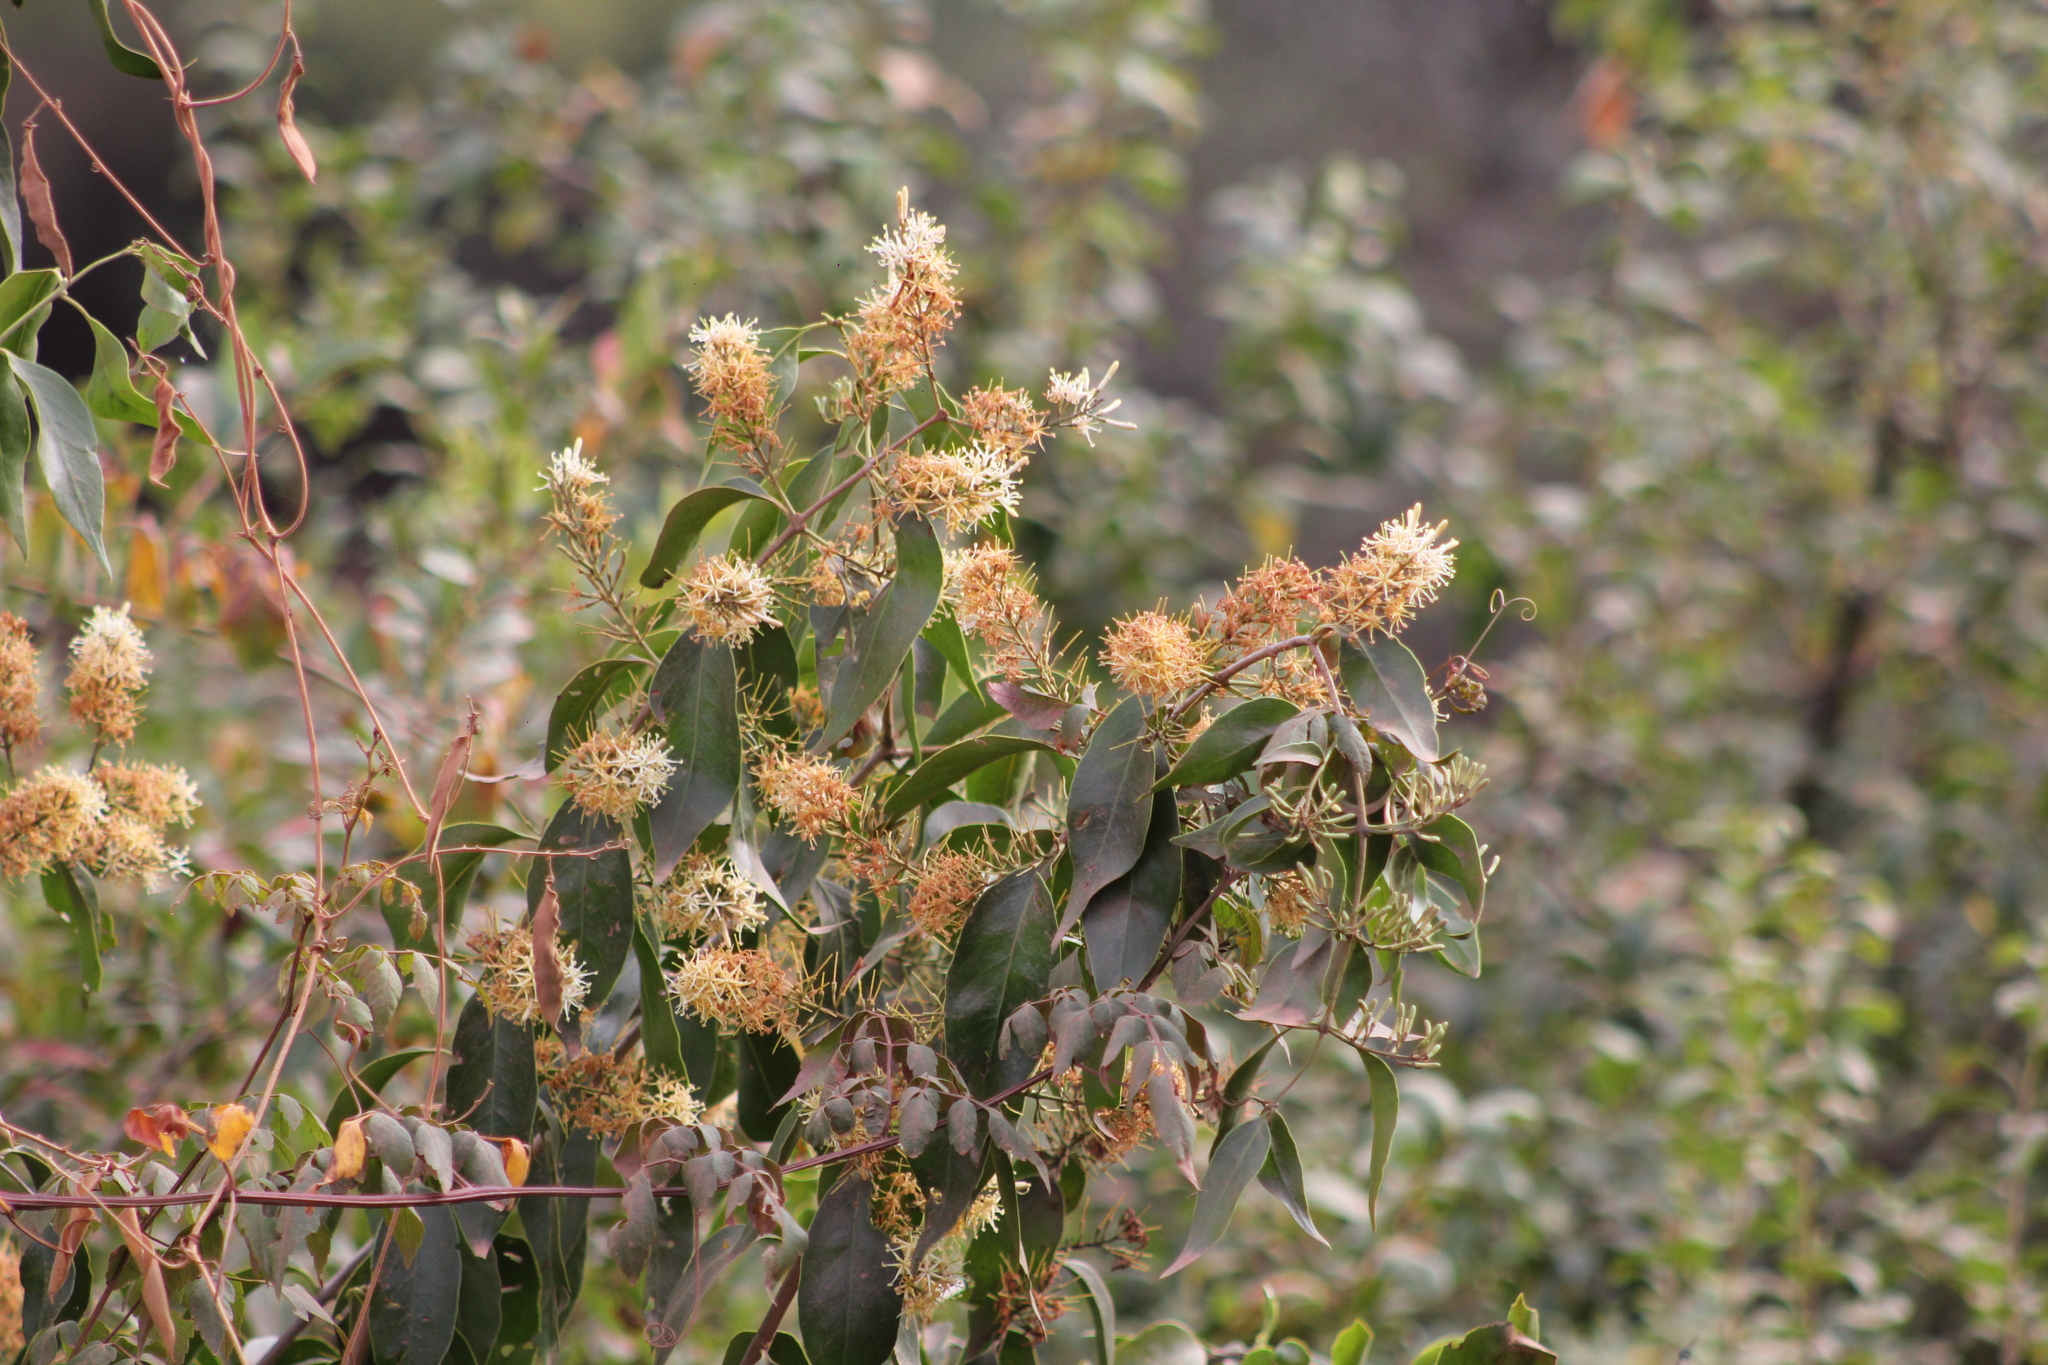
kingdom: Plantae
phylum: Tracheophyta
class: Magnoliopsida
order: Santalales
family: Loranthaceae
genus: Tripodanthus
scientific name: Tripodanthus acutifolius
